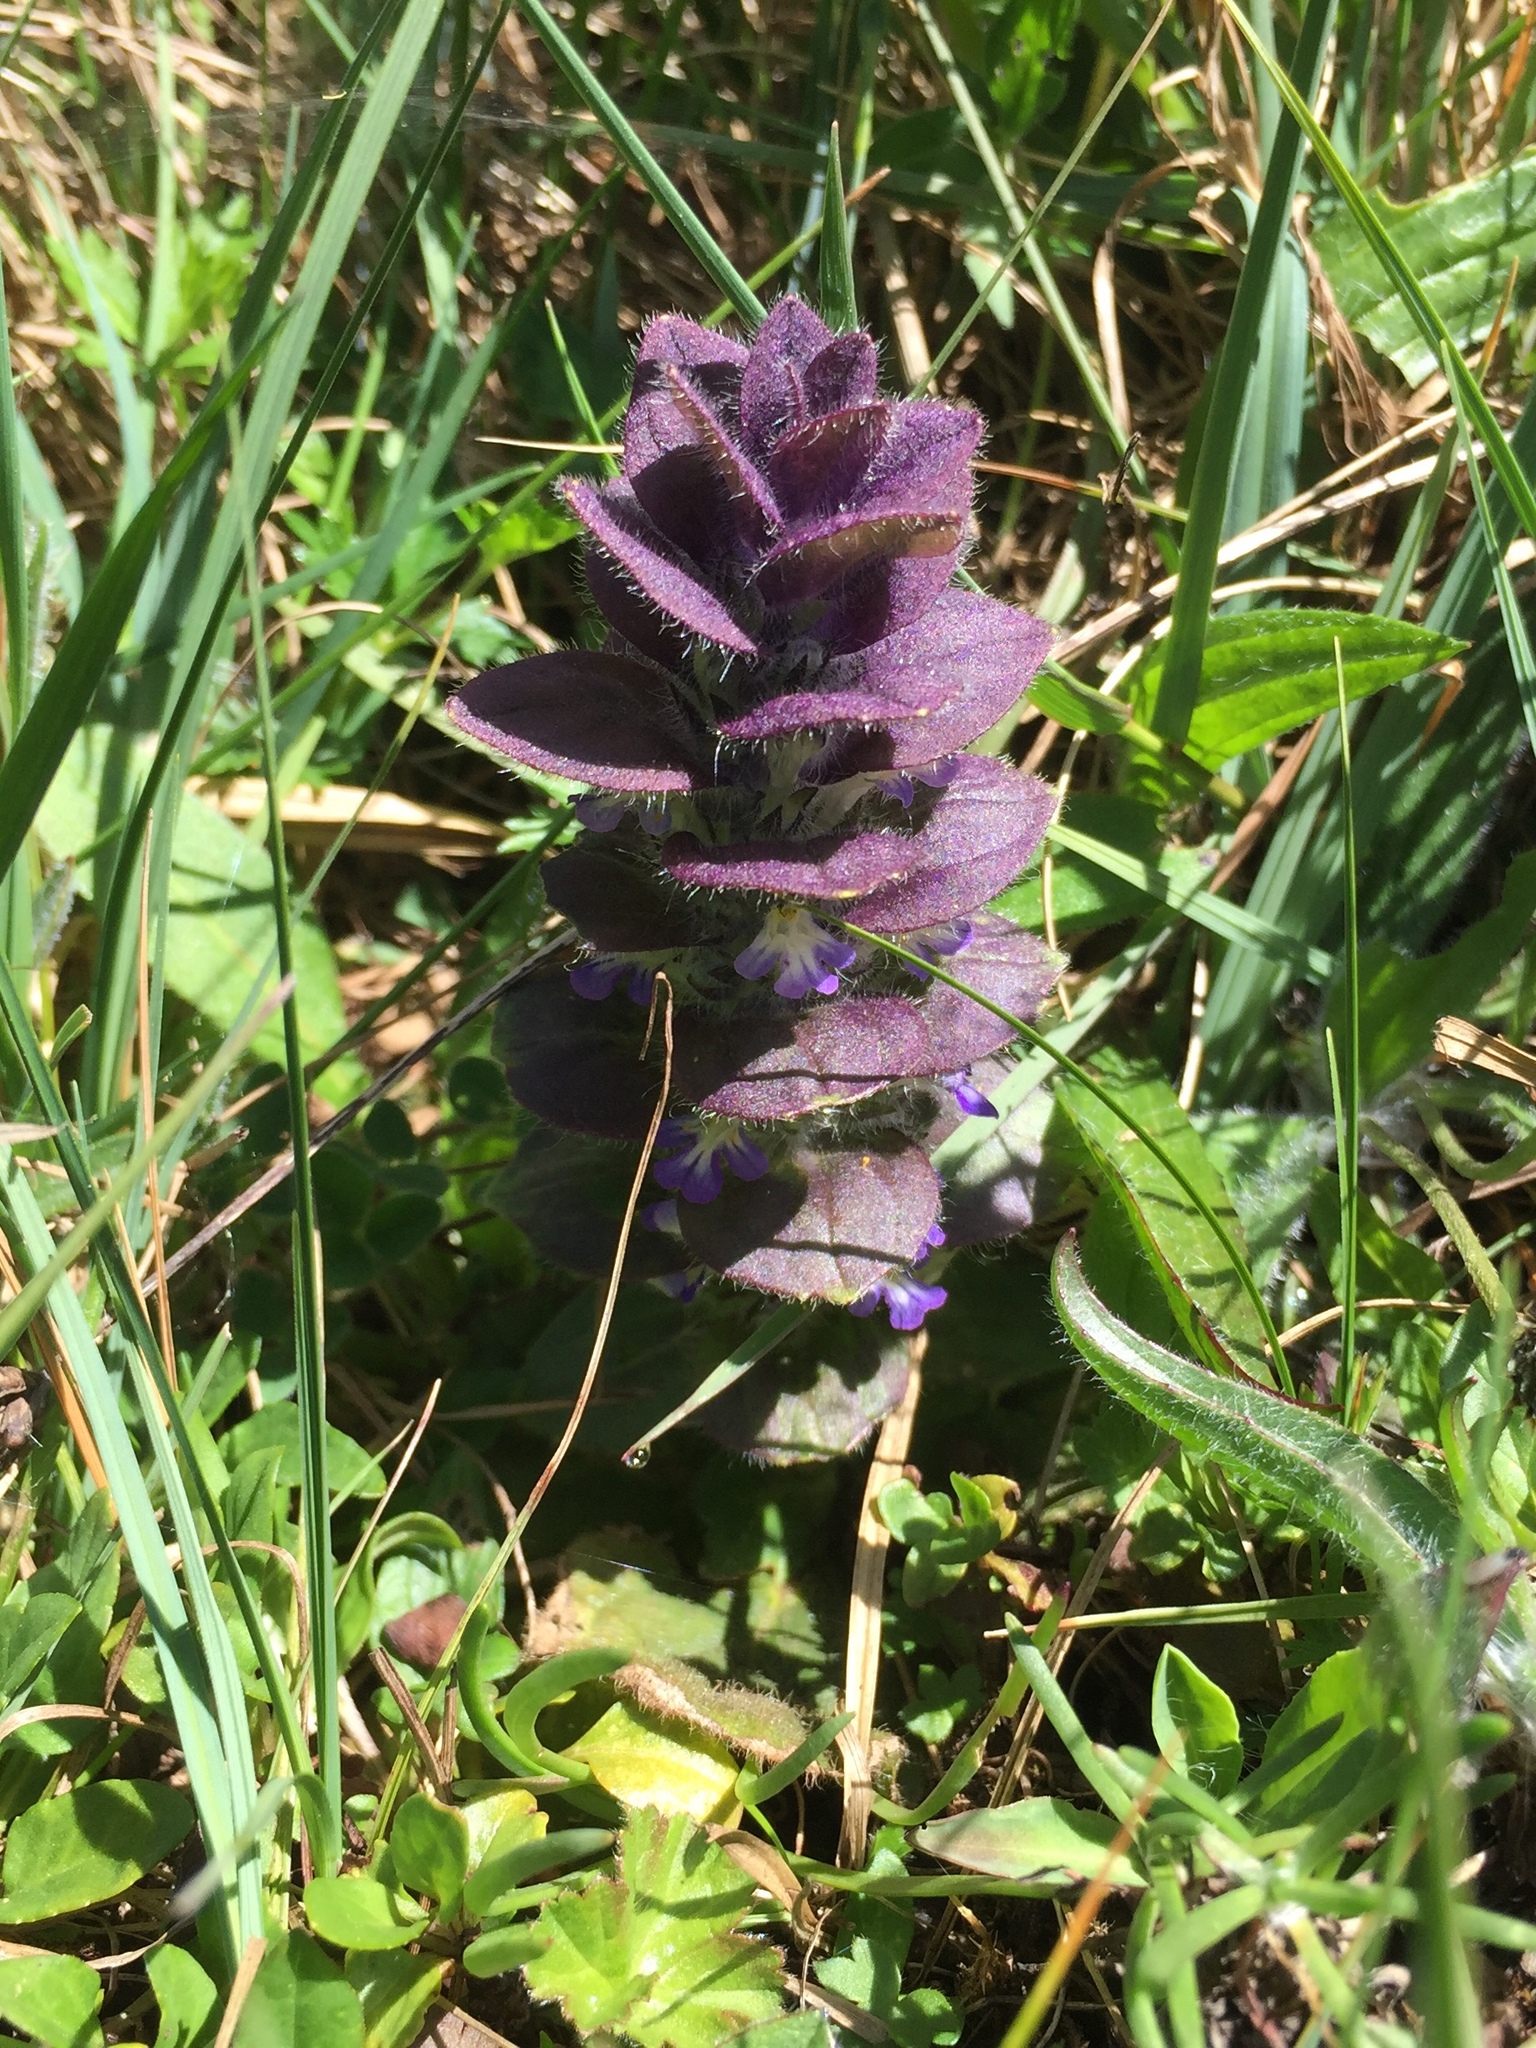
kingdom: Plantae
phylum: Tracheophyta
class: Magnoliopsida
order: Lamiales
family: Lamiaceae
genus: Ajuga
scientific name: Ajuga pyramidalis
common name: Pyramid bugle
